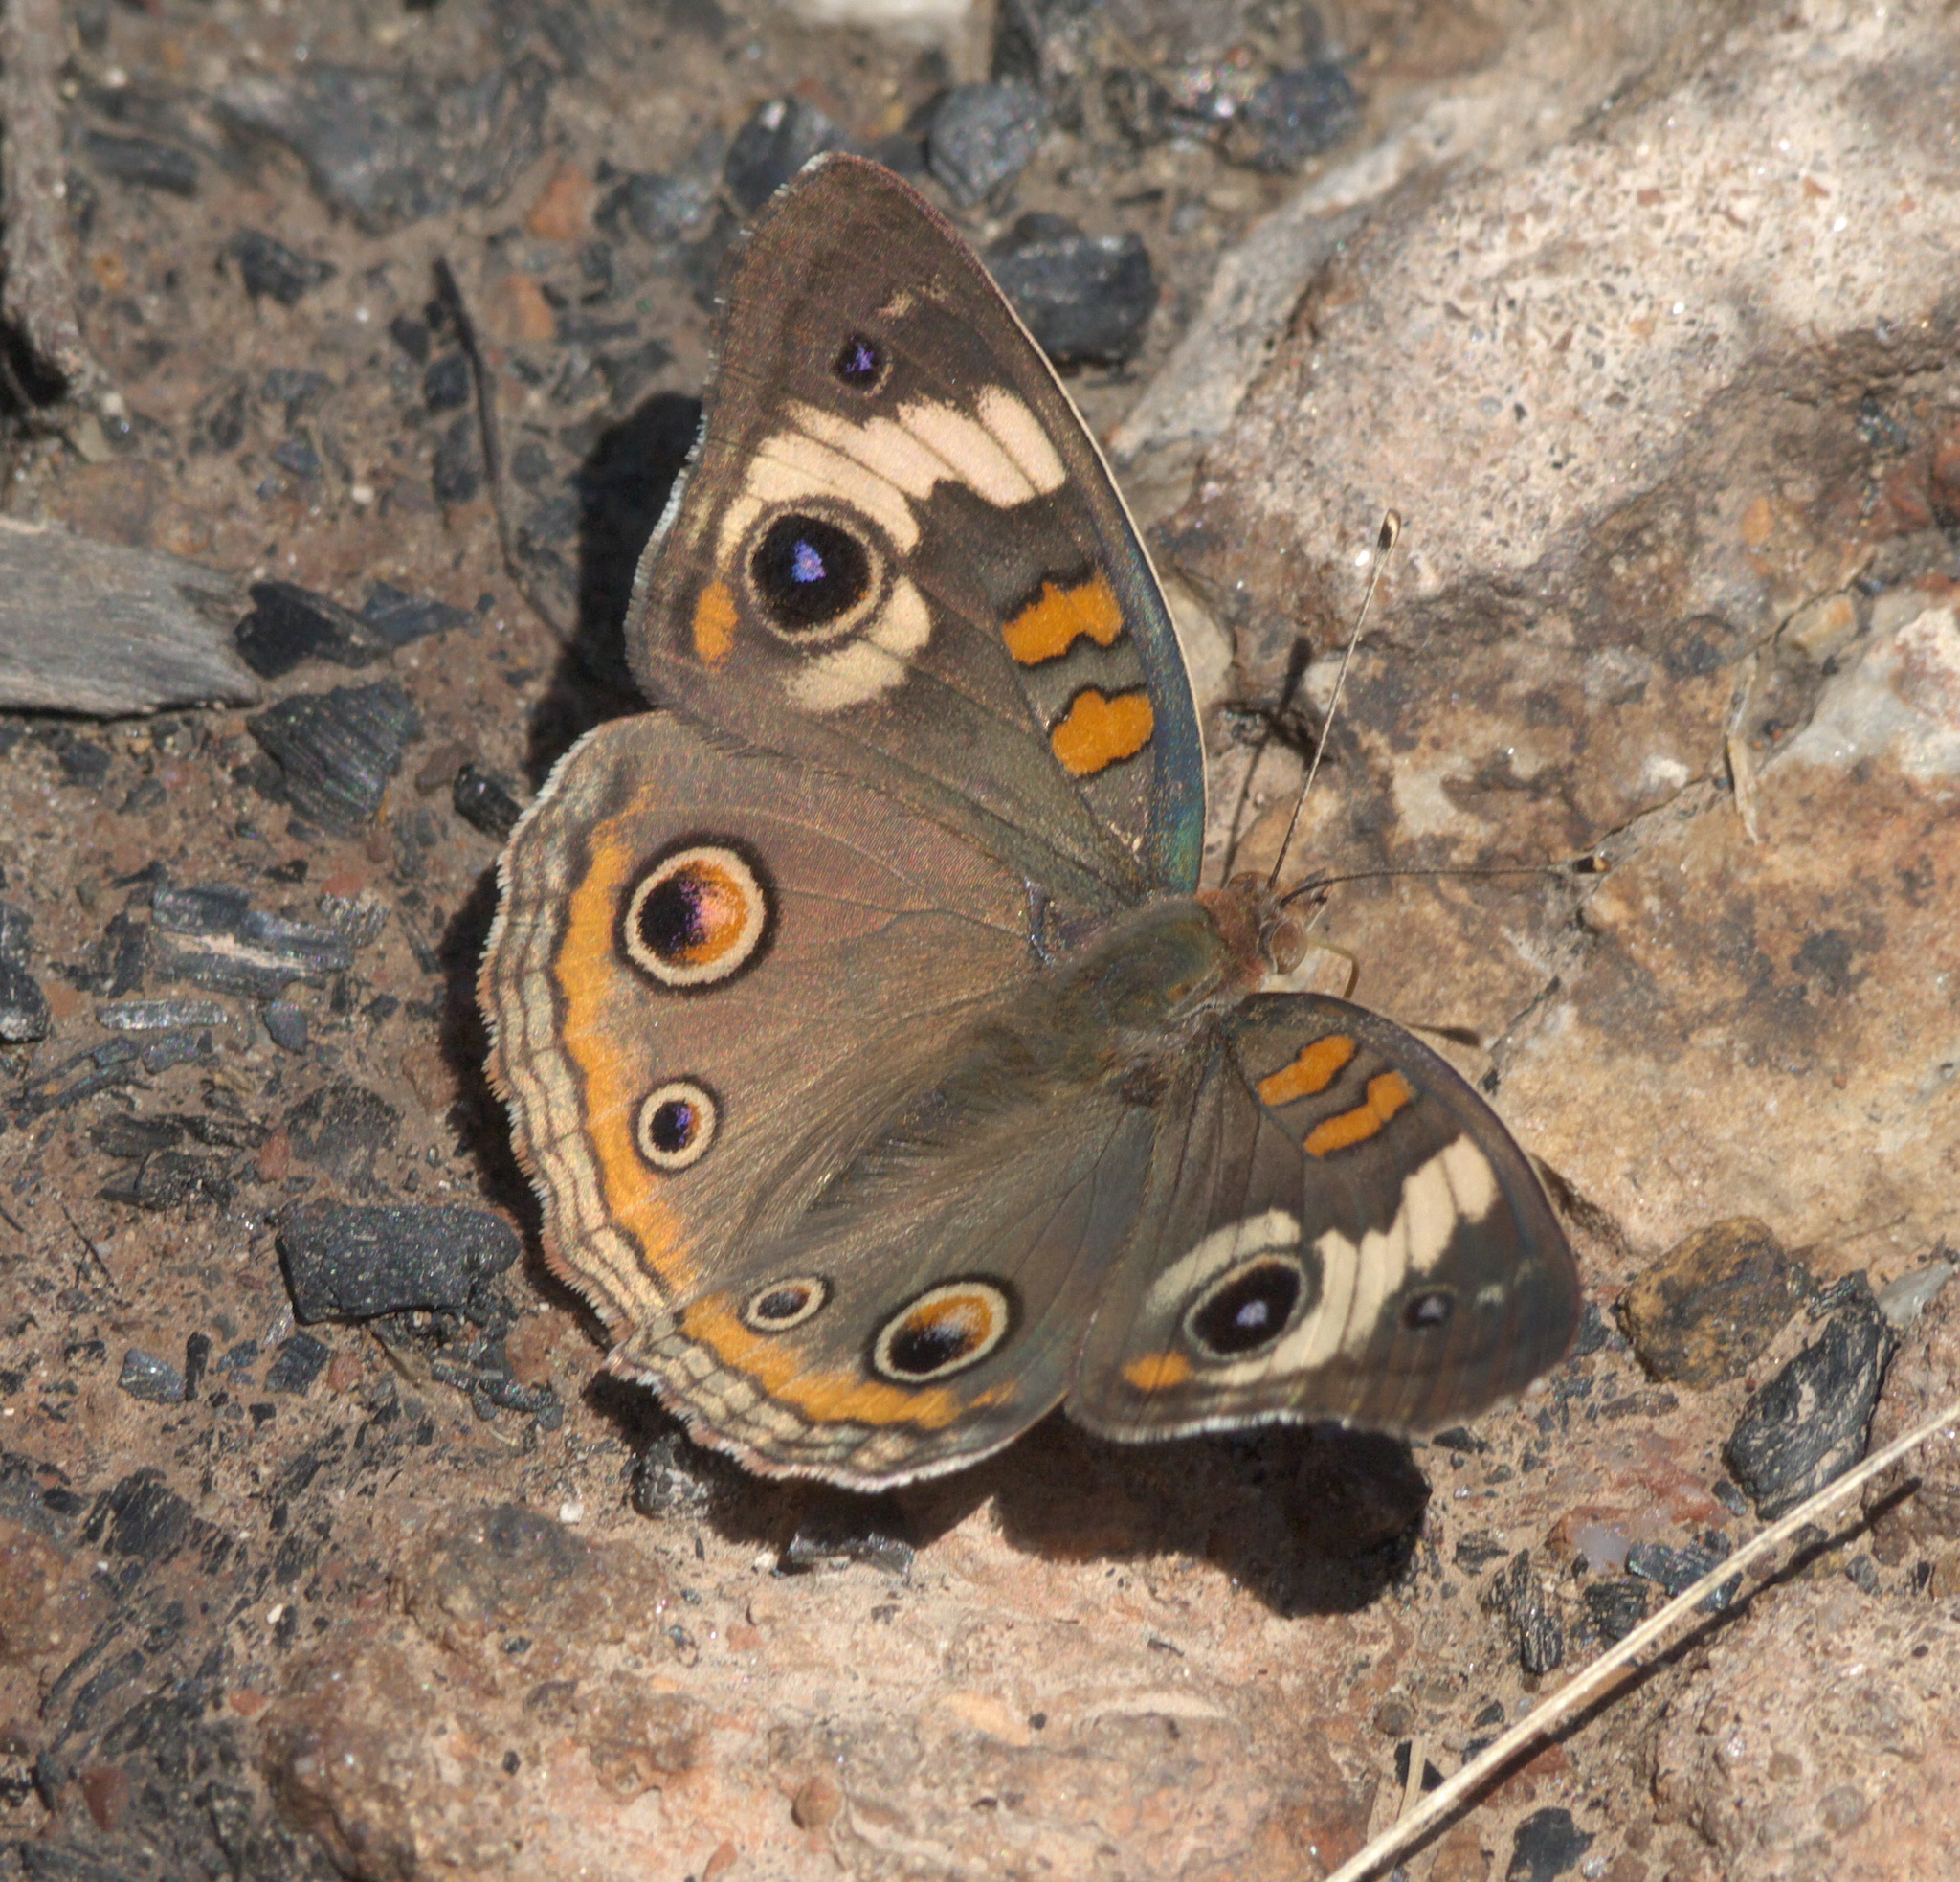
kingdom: Animalia
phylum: Arthropoda
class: Insecta
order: Lepidoptera
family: Nymphalidae
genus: Junonia
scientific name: Junonia coenia
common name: Common buckeye
